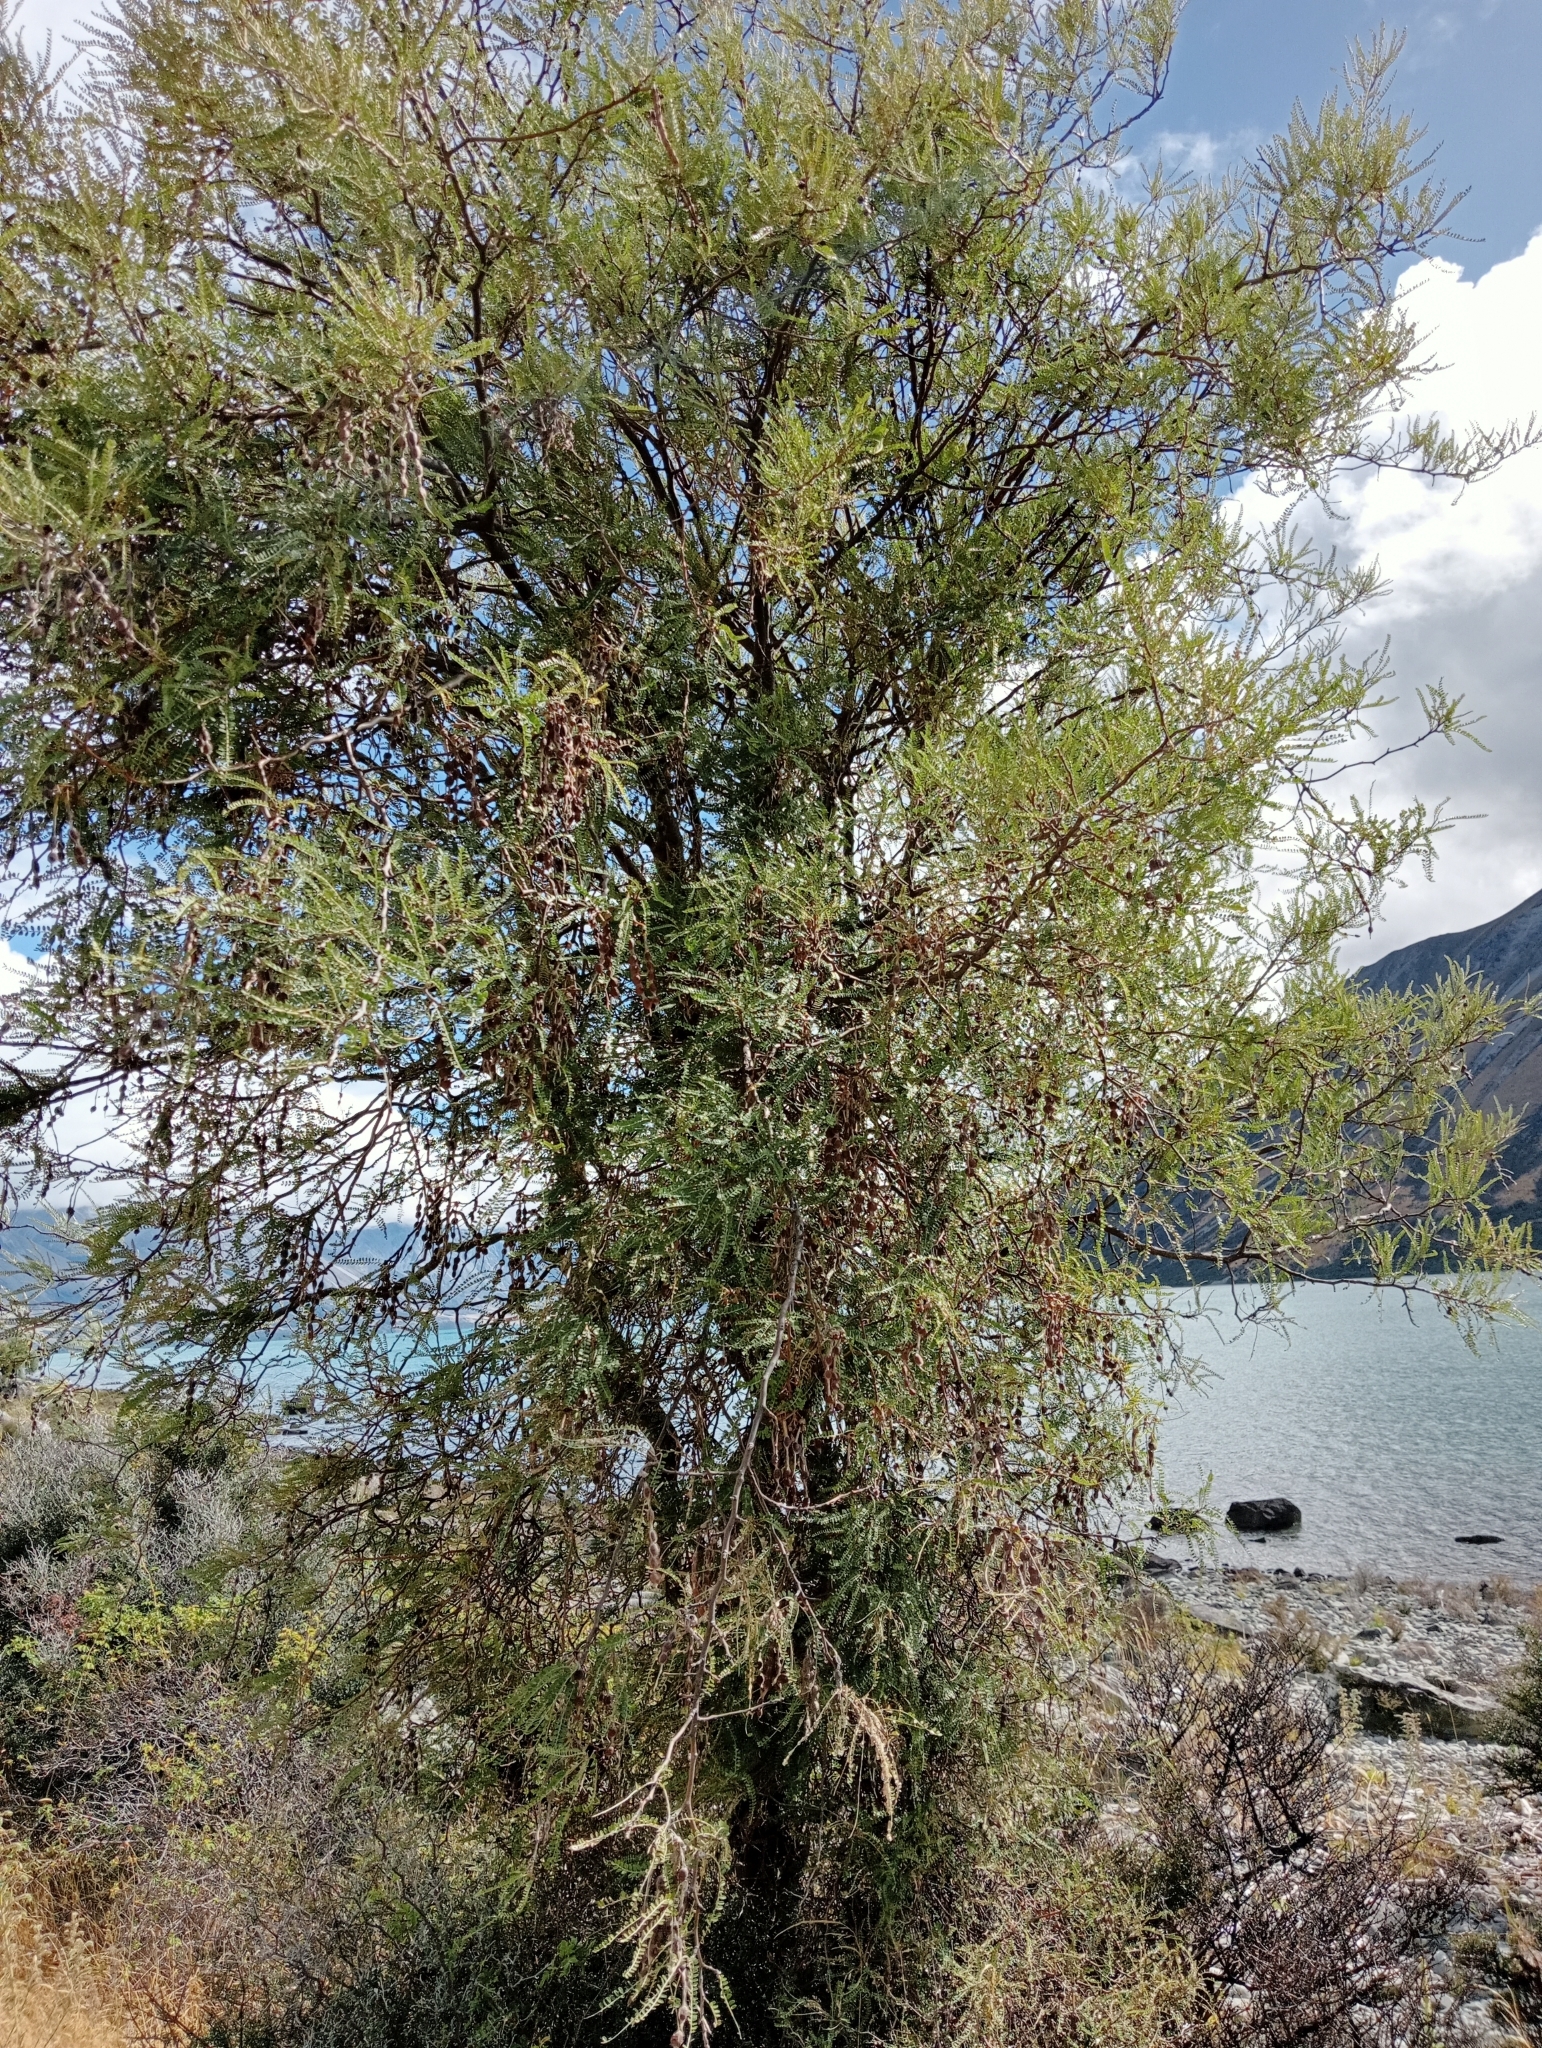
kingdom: Plantae
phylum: Tracheophyta
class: Magnoliopsida
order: Fabales
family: Fabaceae
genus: Sophora
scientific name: Sophora microphylla
